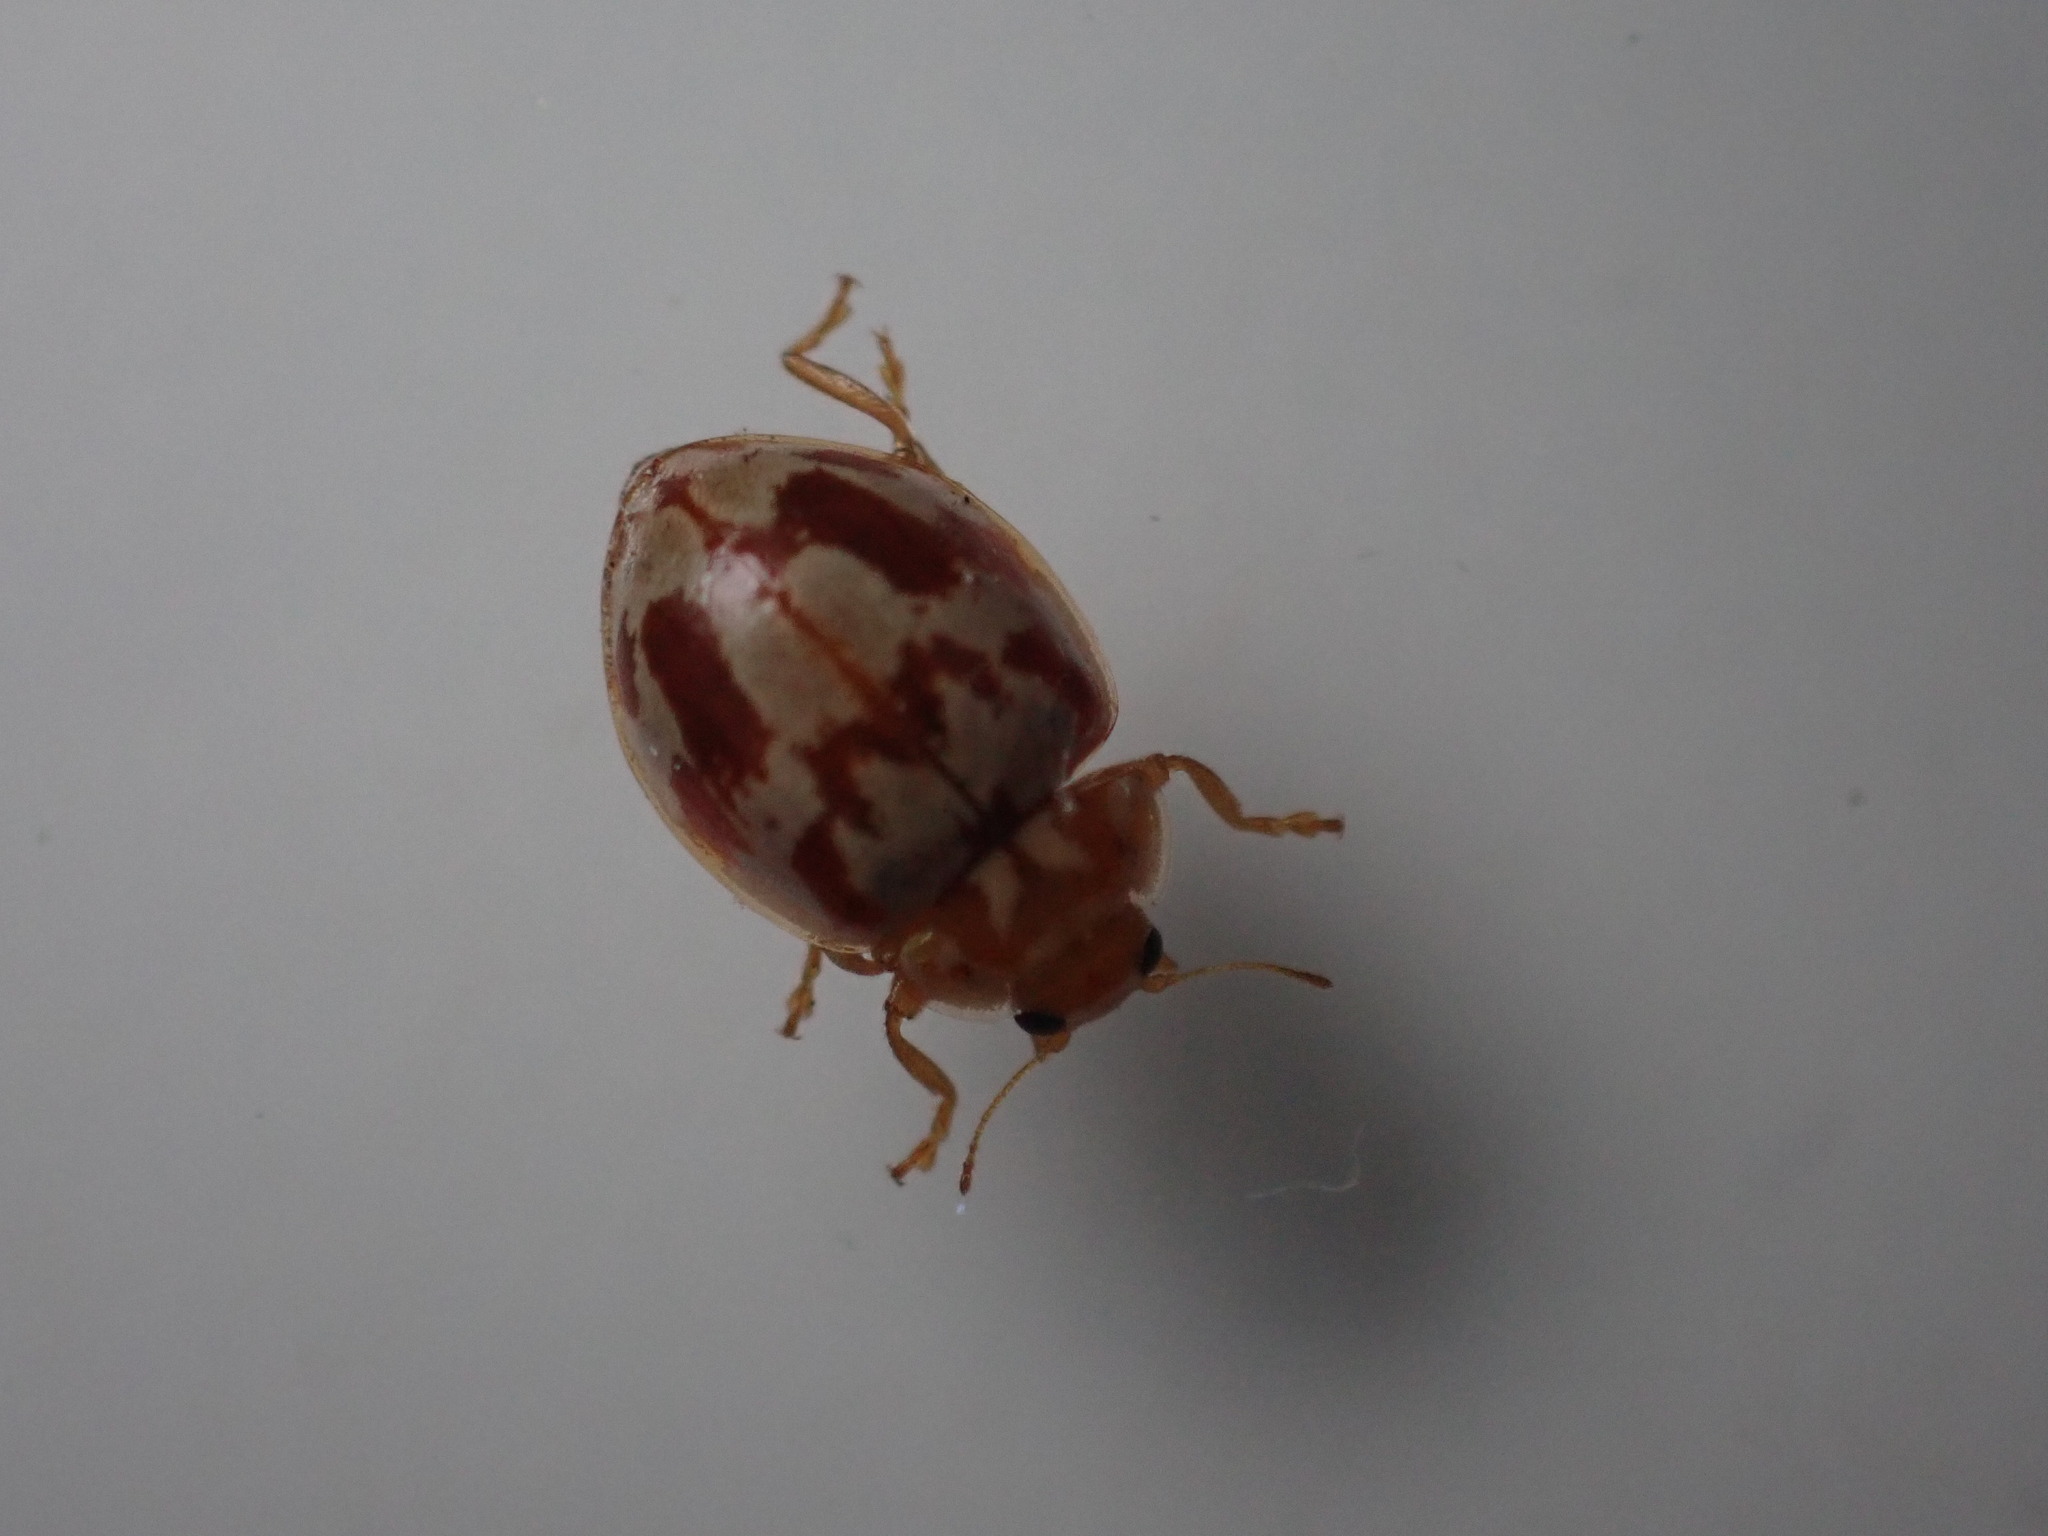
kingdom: Animalia
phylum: Arthropoda
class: Insecta
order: Coleoptera
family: Coccinellidae
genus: Myrrha
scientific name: Myrrha octodecimguttata
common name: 18-spot ladybird
